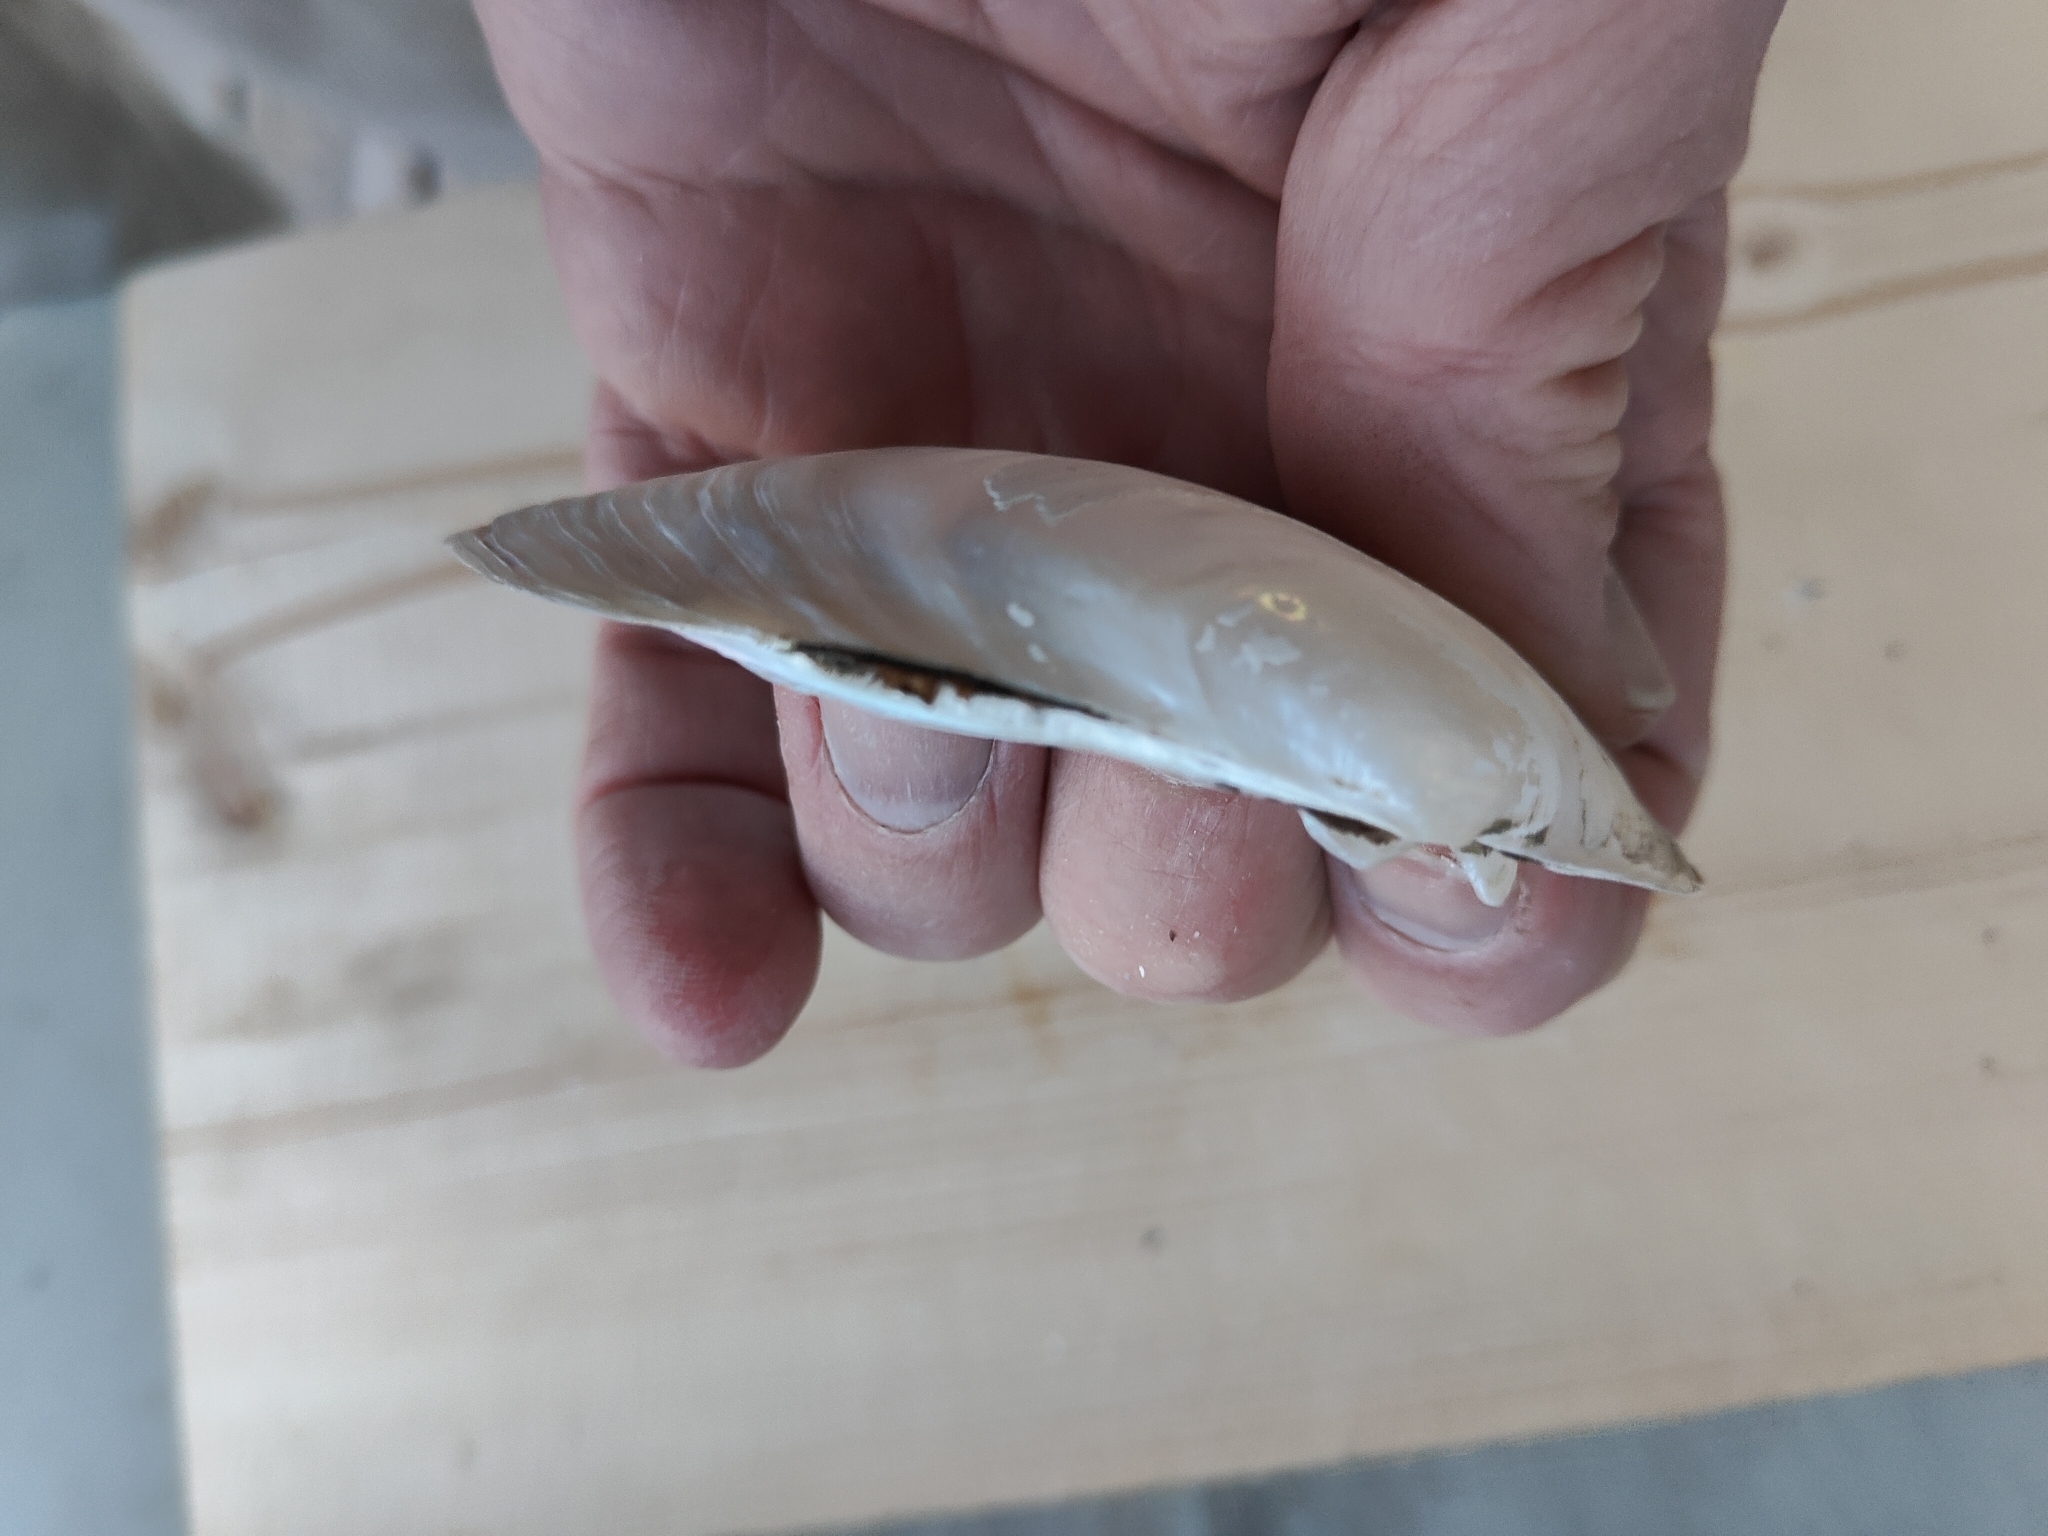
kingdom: Animalia
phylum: Mollusca
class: Bivalvia
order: Unionida
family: Unionidae
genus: Lampsilis
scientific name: Lampsilis siliquoidea
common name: Fatmucket
